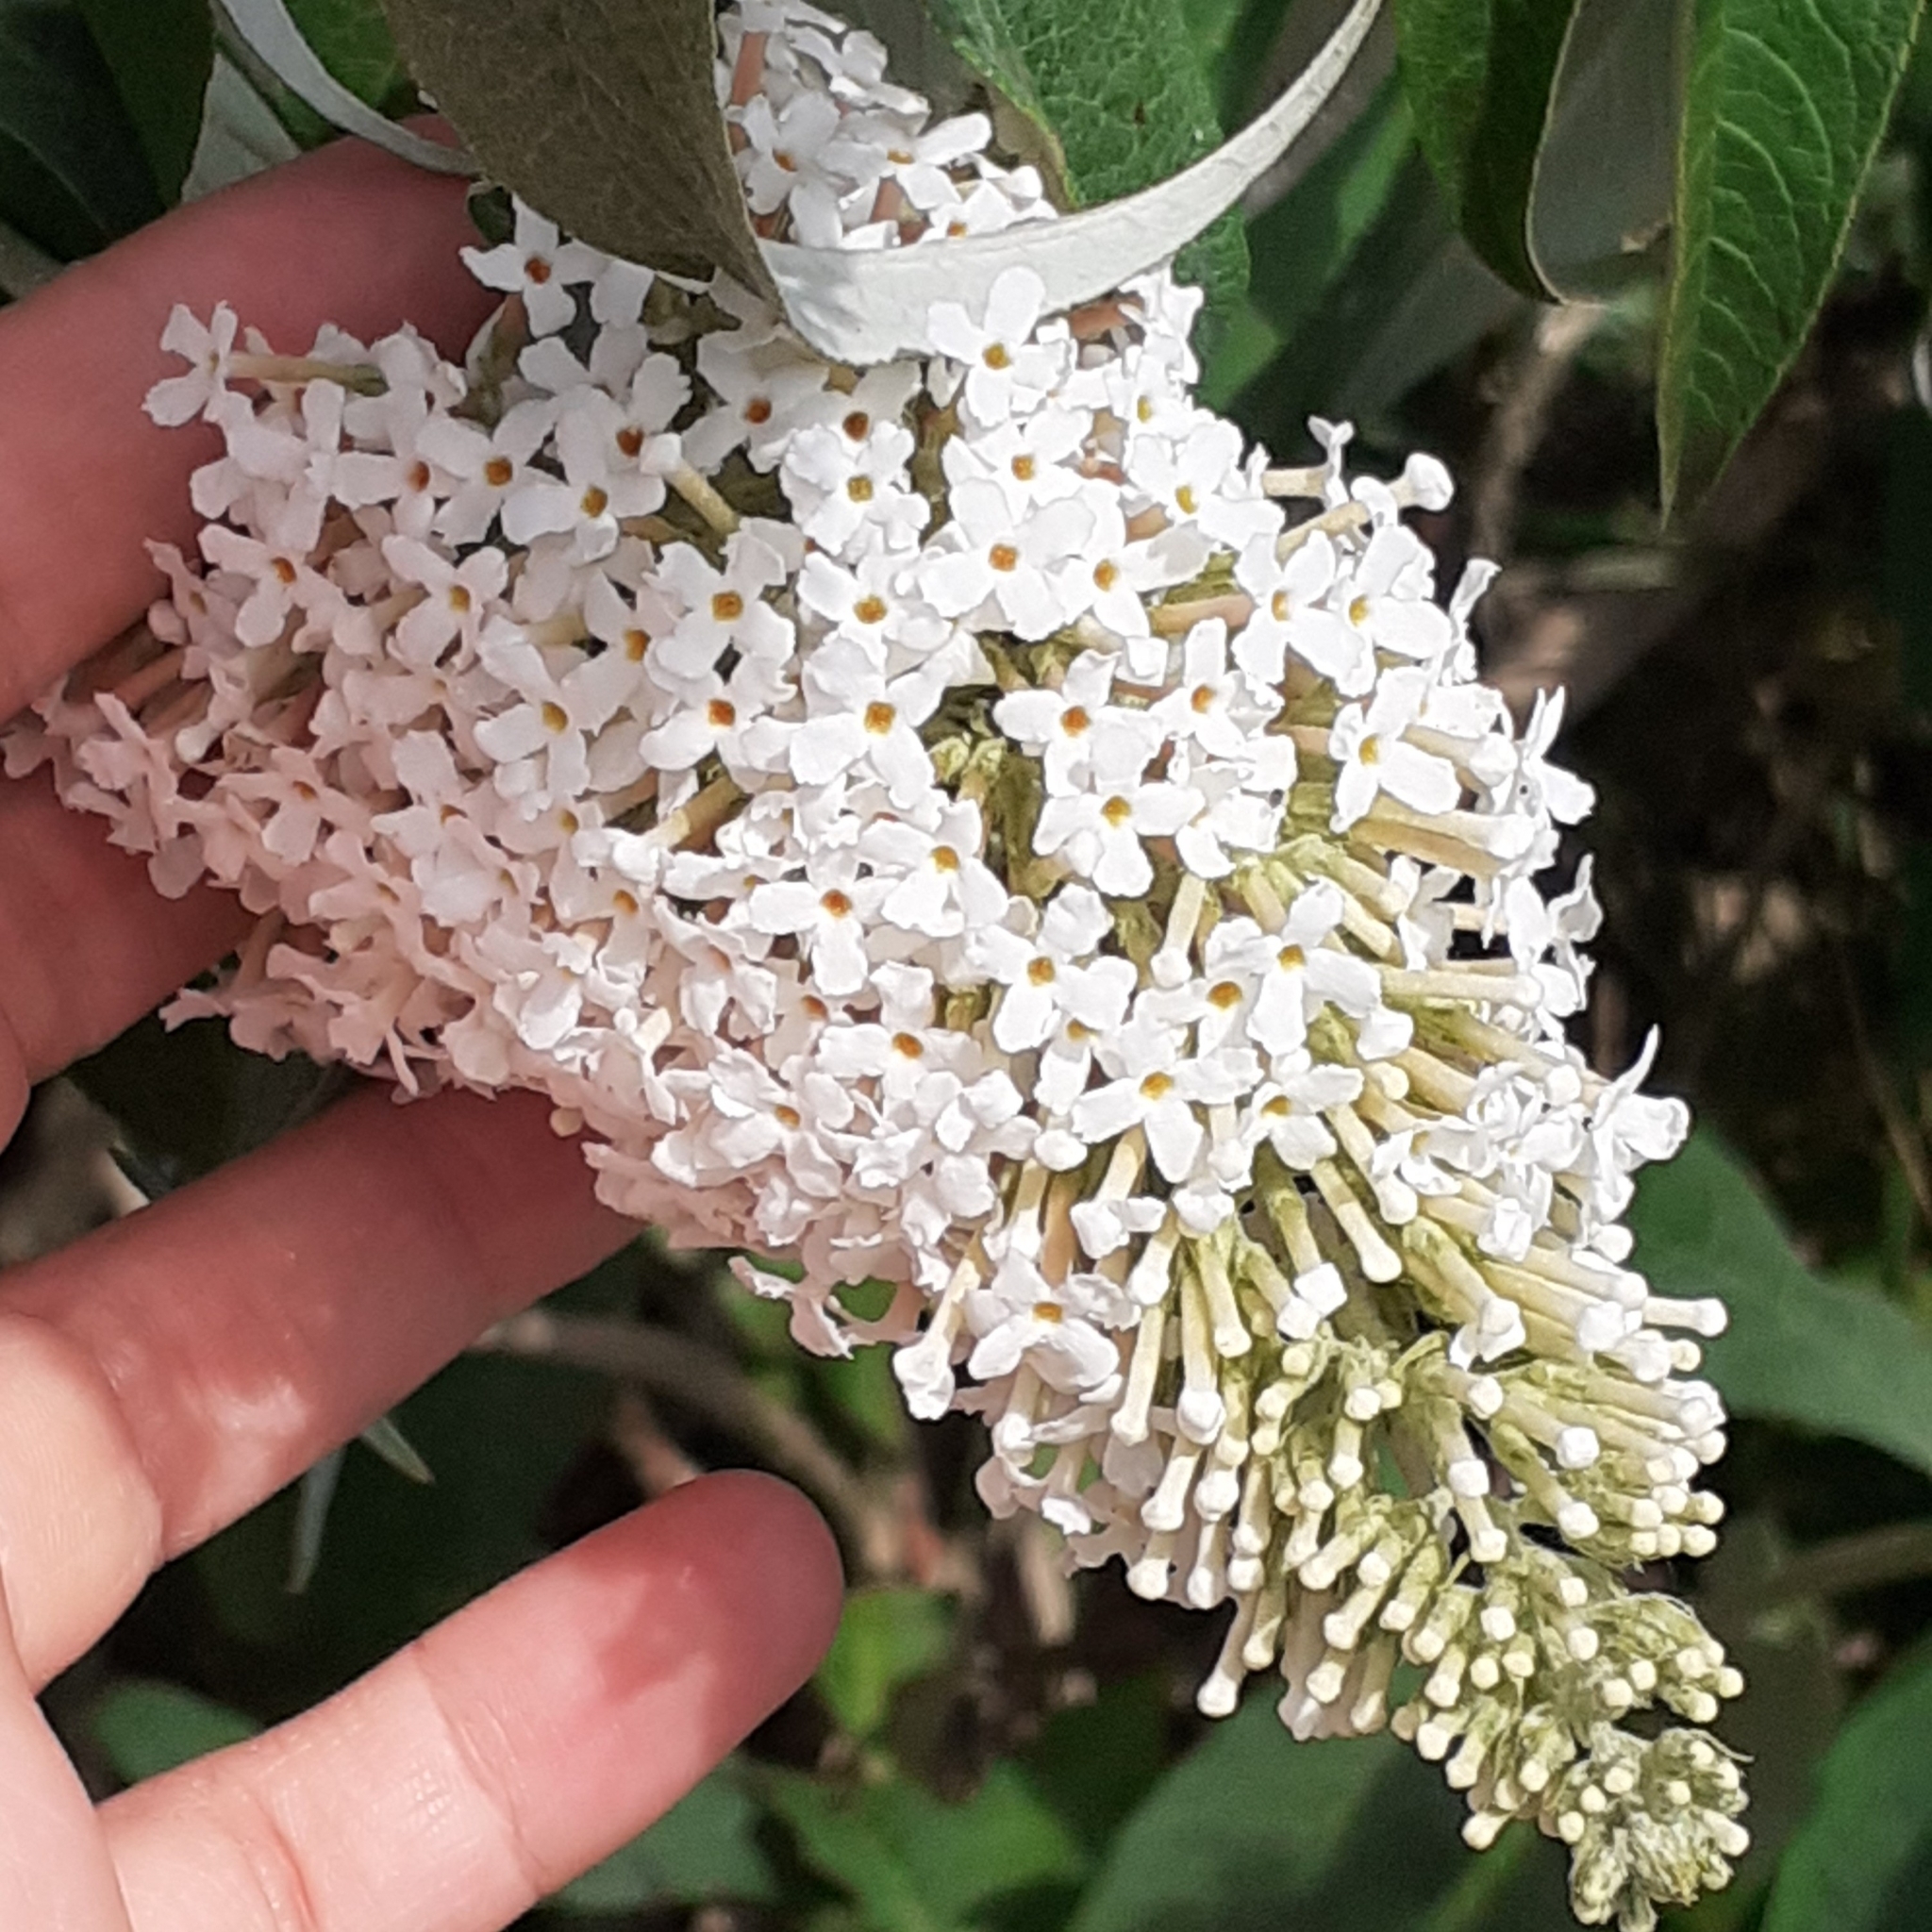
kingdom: Plantae
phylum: Tracheophyta
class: Magnoliopsida
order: Lamiales
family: Scrophulariaceae
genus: Buddleja
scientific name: Buddleja davidii
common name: Butterfly-bush
